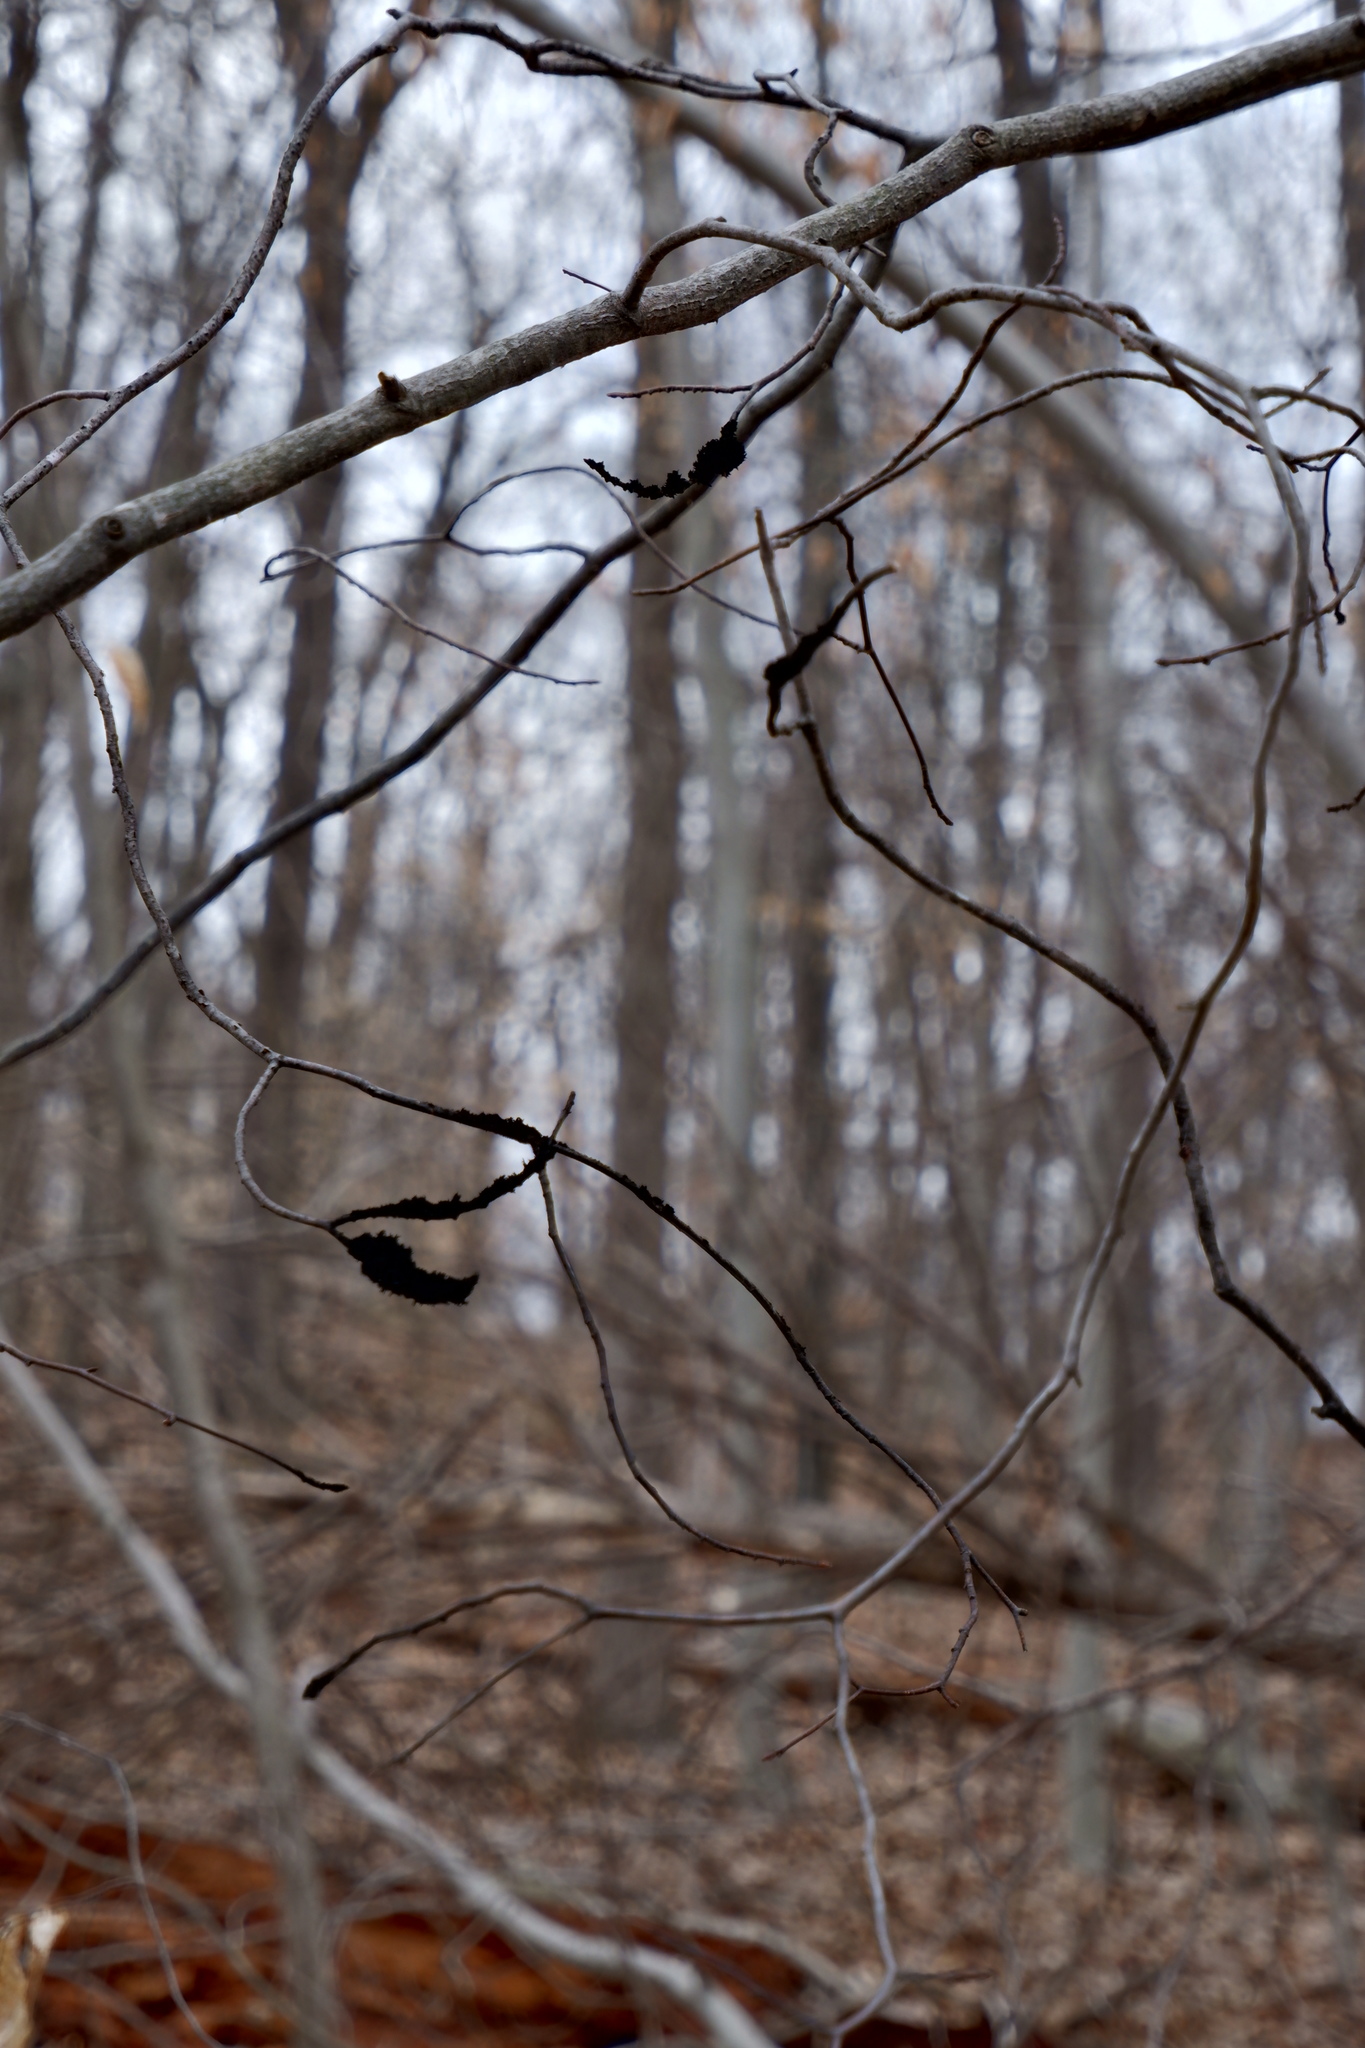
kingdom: Fungi
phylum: Ascomycota
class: Dothideomycetes
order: Capnodiales
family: Capnodiaceae
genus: Scorias
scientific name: Scorias spongiosa
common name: Black sooty mold
